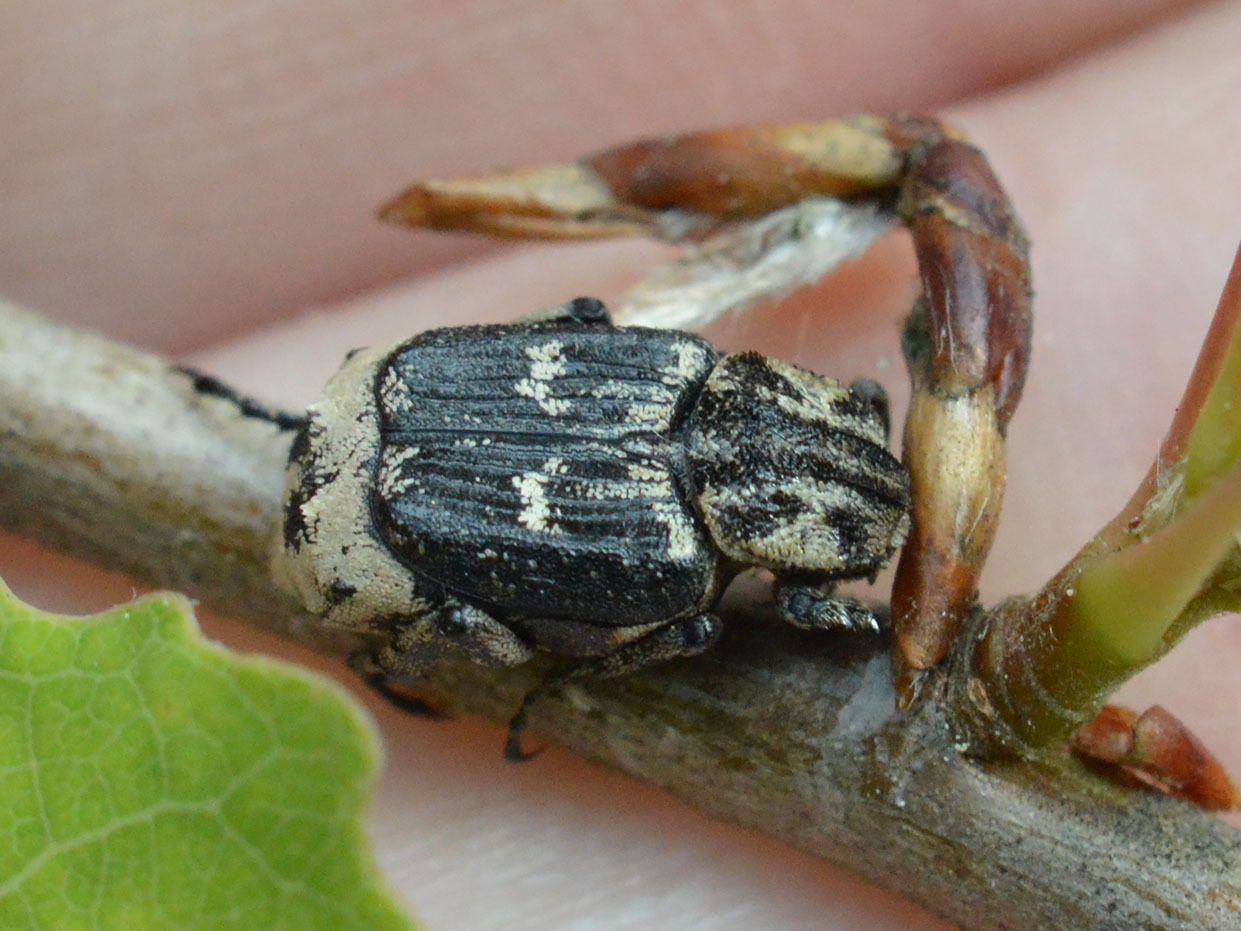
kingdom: Animalia
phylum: Arthropoda
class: Insecta
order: Coleoptera
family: Scarabaeidae
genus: Valgus
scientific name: Valgus hemipterus
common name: Bug flower chafer
